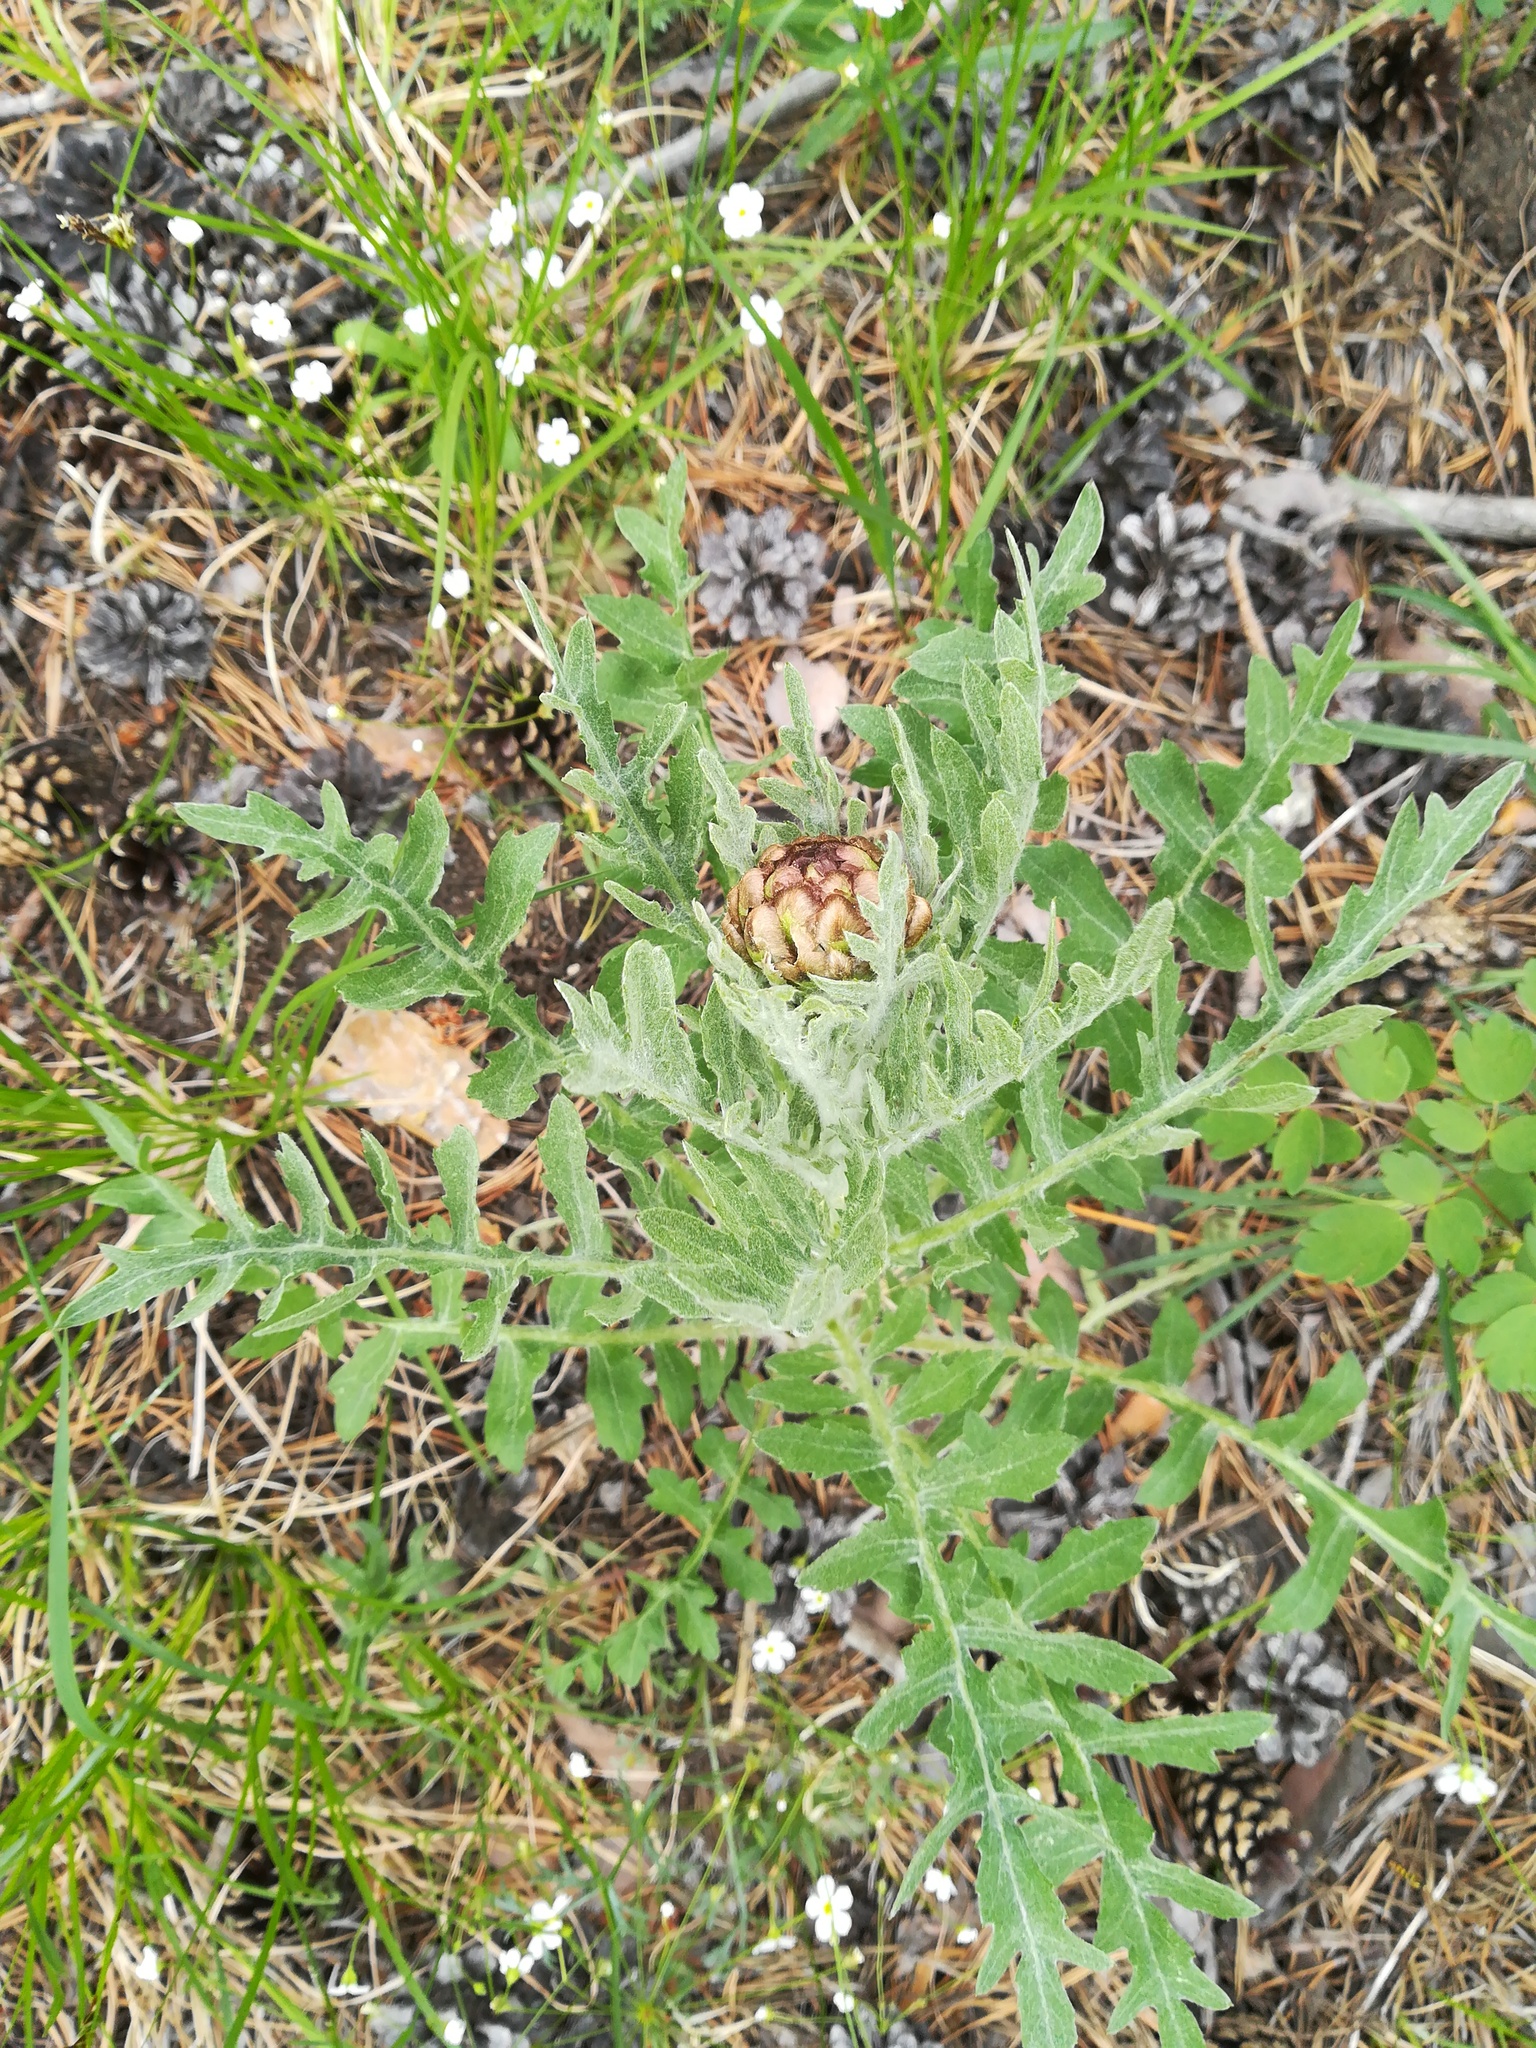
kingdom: Plantae
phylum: Tracheophyta
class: Magnoliopsida
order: Asterales
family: Asteraceae
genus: Leuzea
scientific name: Leuzea uniflora
